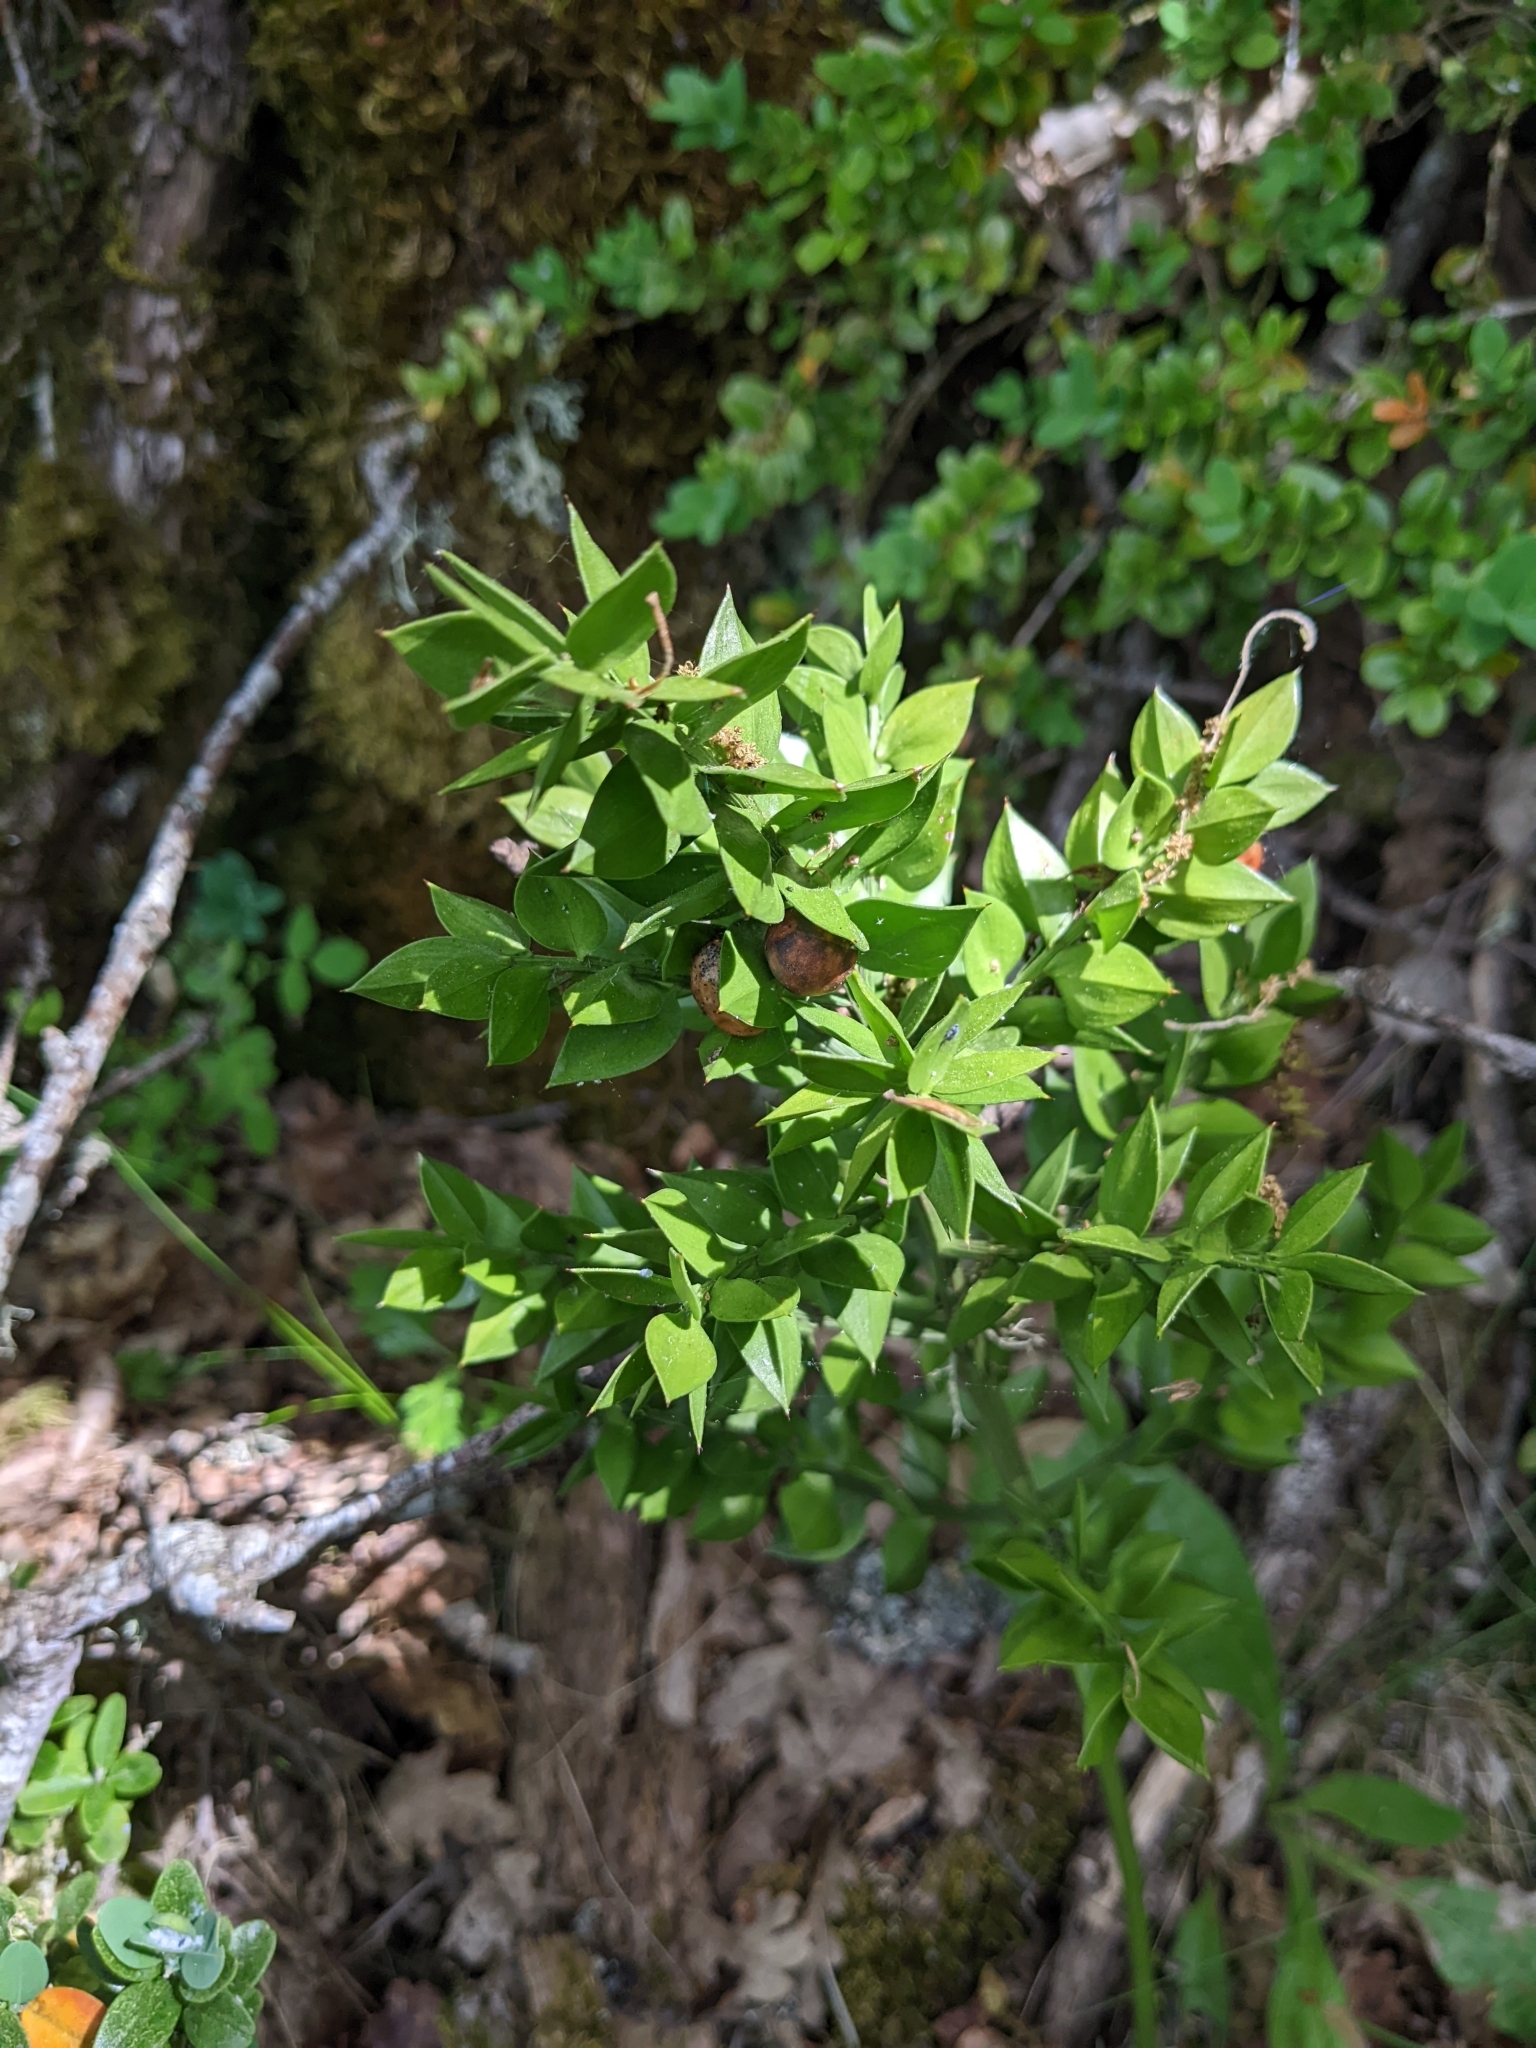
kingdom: Plantae
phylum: Tracheophyta
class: Liliopsida
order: Asparagales
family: Asparagaceae
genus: Ruscus
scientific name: Ruscus aculeatus
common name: Butcher's-broom
